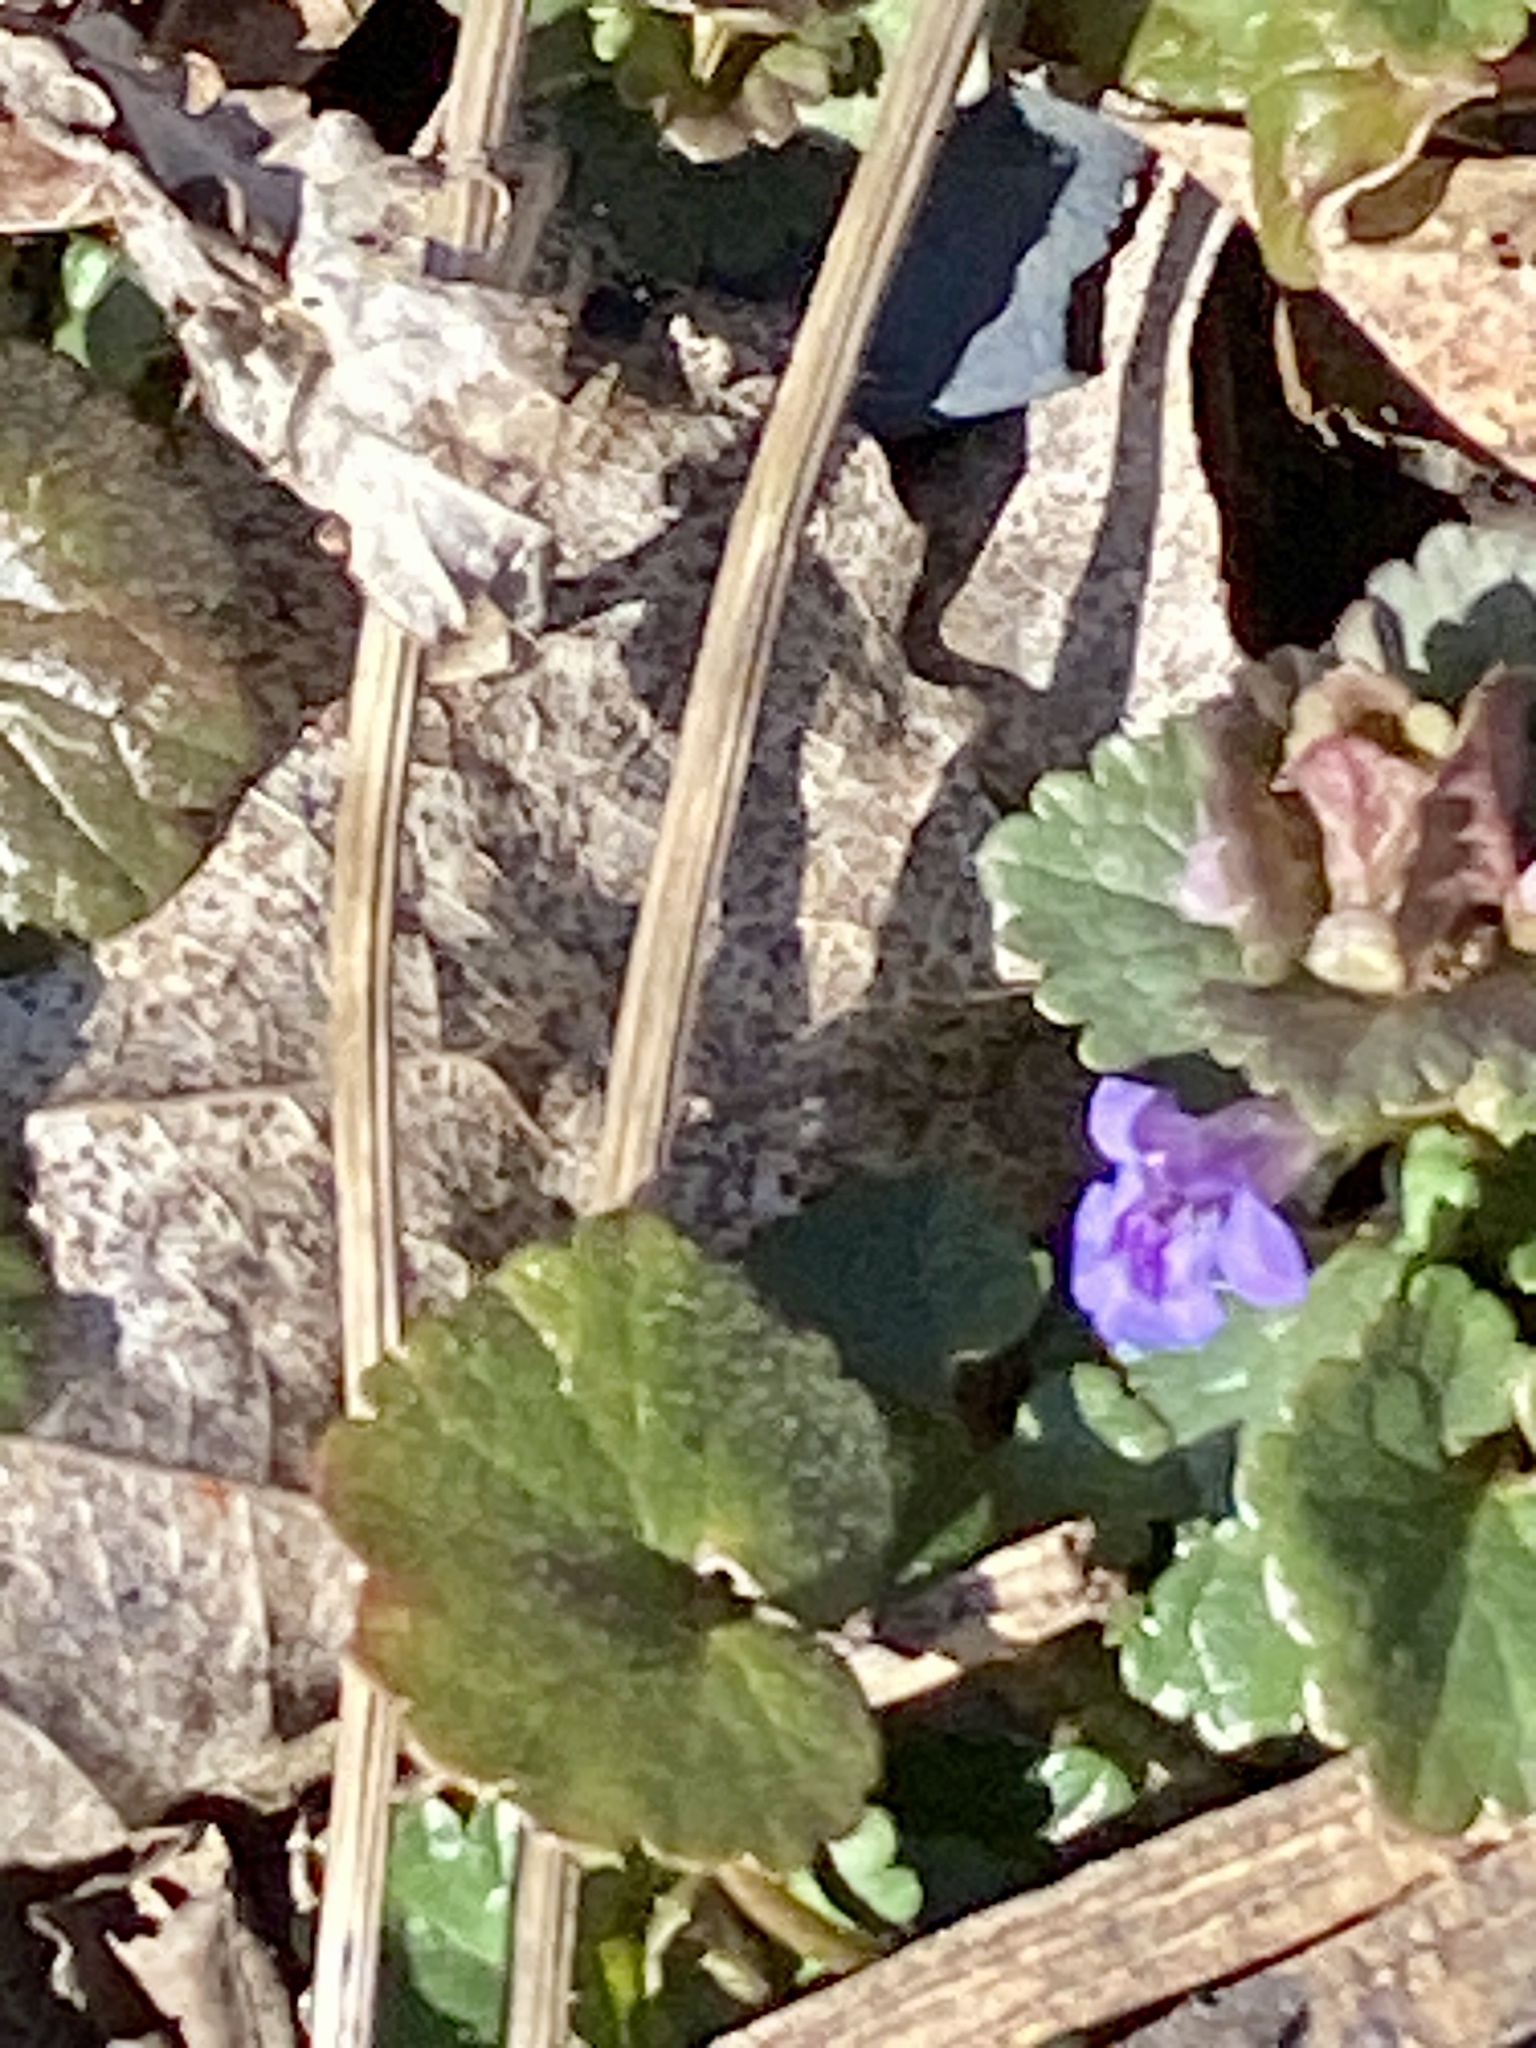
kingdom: Plantae
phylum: Tracheophyta
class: Magnoliopsida
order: Lamiales
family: Lamiaceae
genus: Glechoma
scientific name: Glechoma hederacea
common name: Ground ivy
